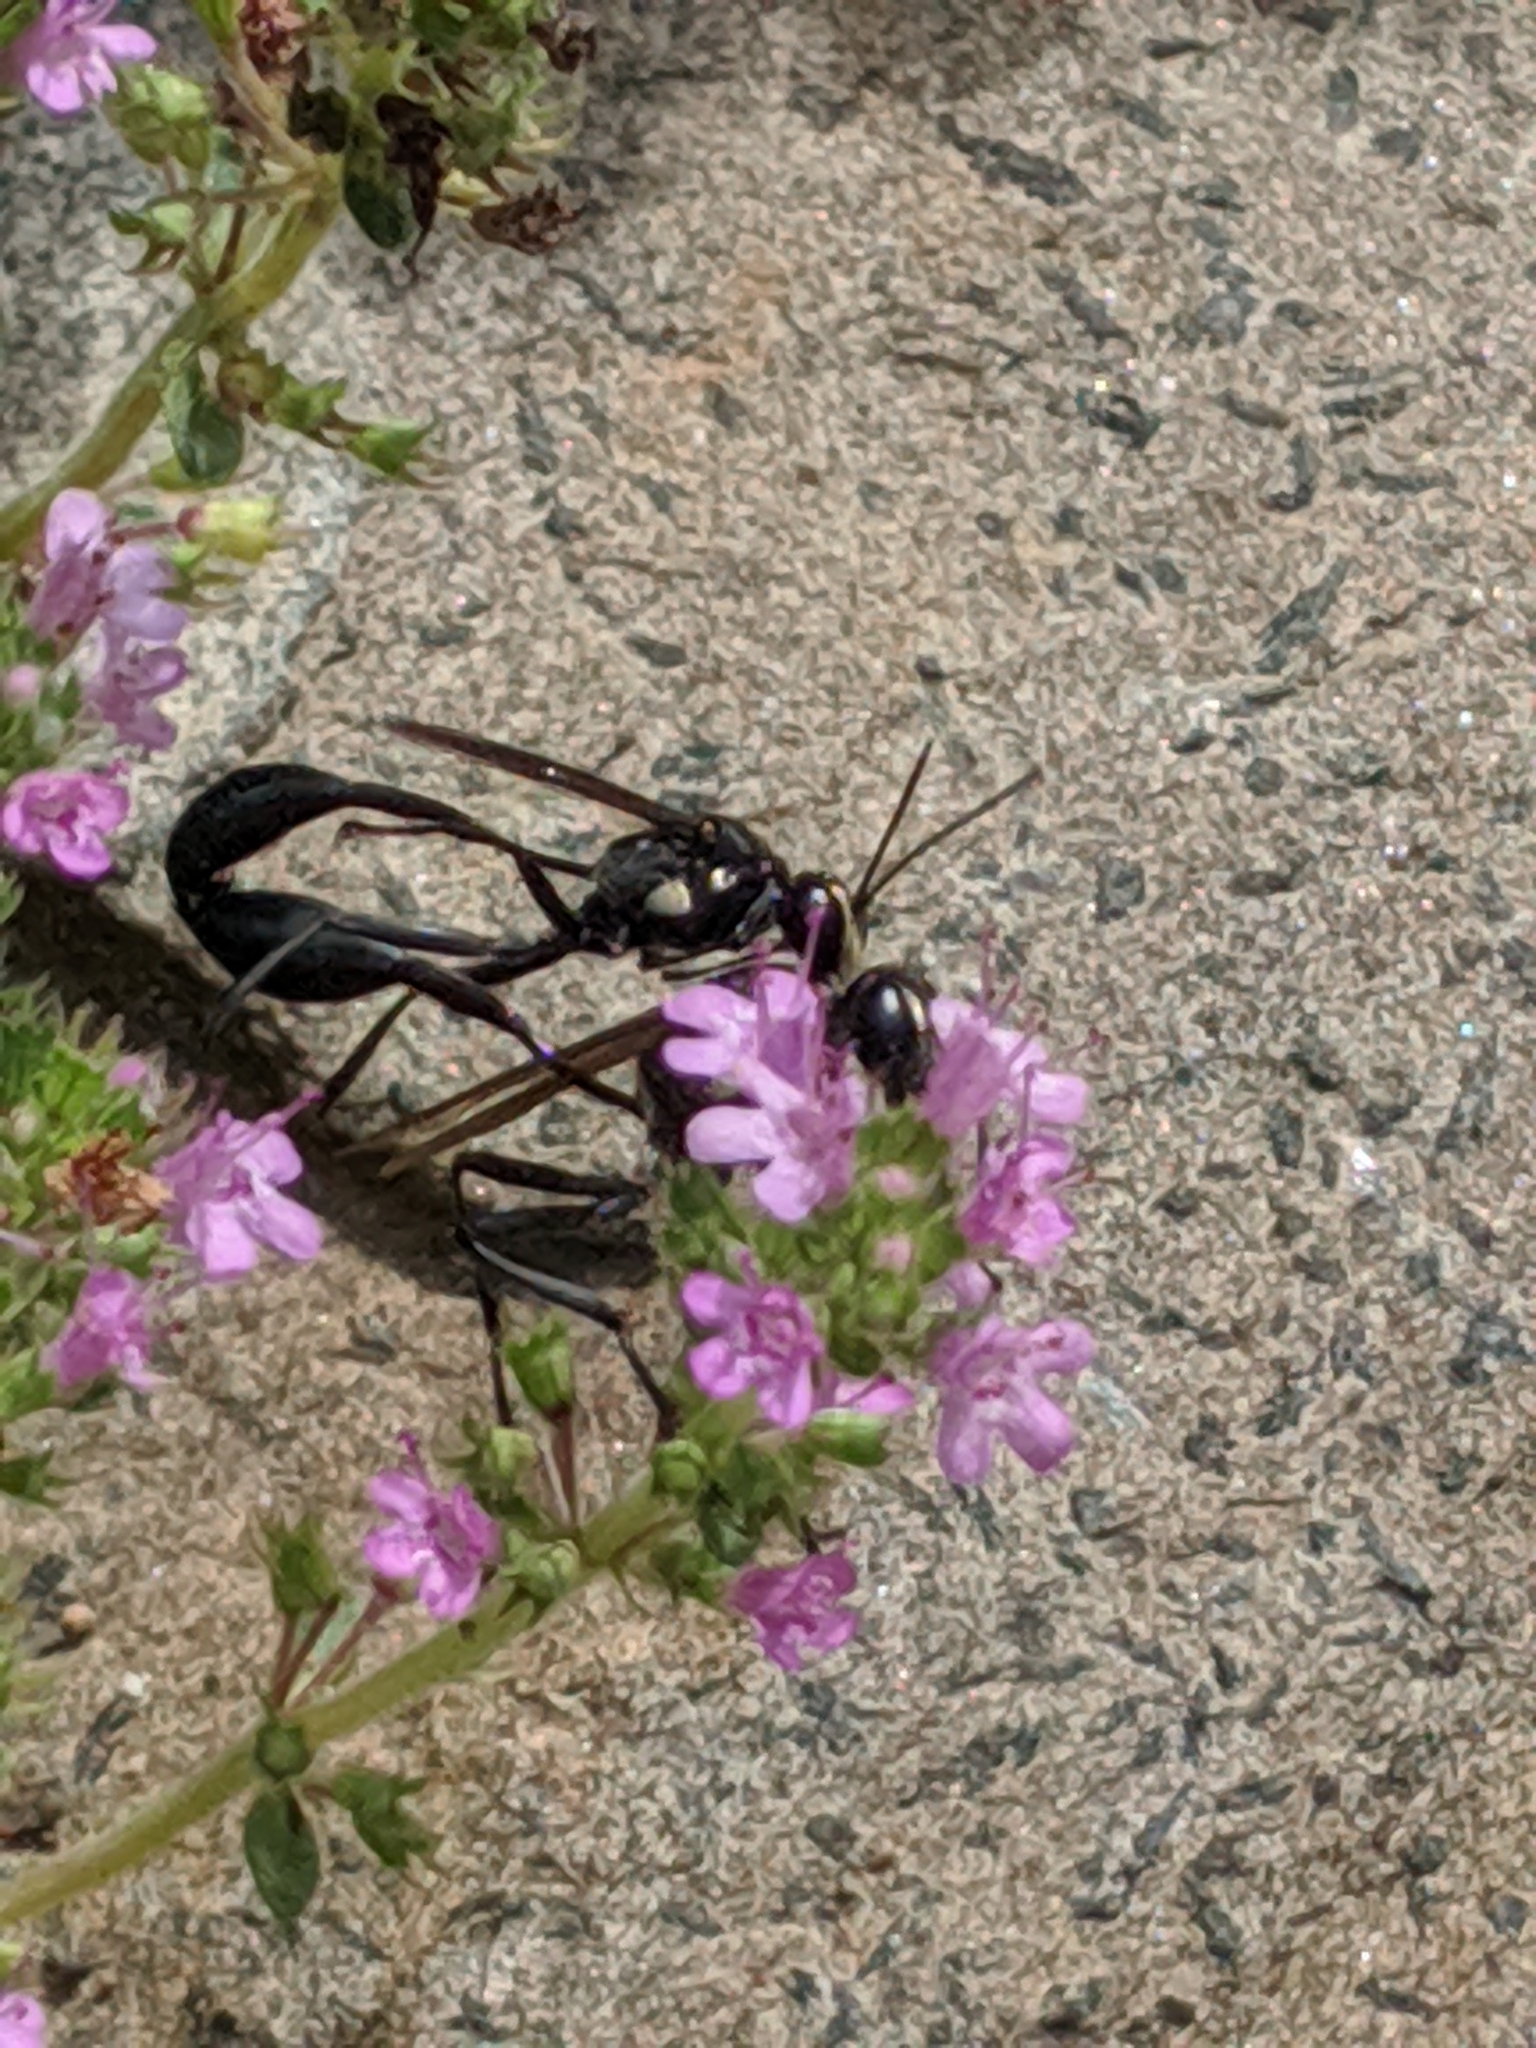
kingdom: Animalia
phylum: Arthropoda
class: Insecta
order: Hymenoptera
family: Sphecidae
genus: Eremnophila
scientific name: Eremnophila aureonotata
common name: Gold-marked thread-waisted wasp
